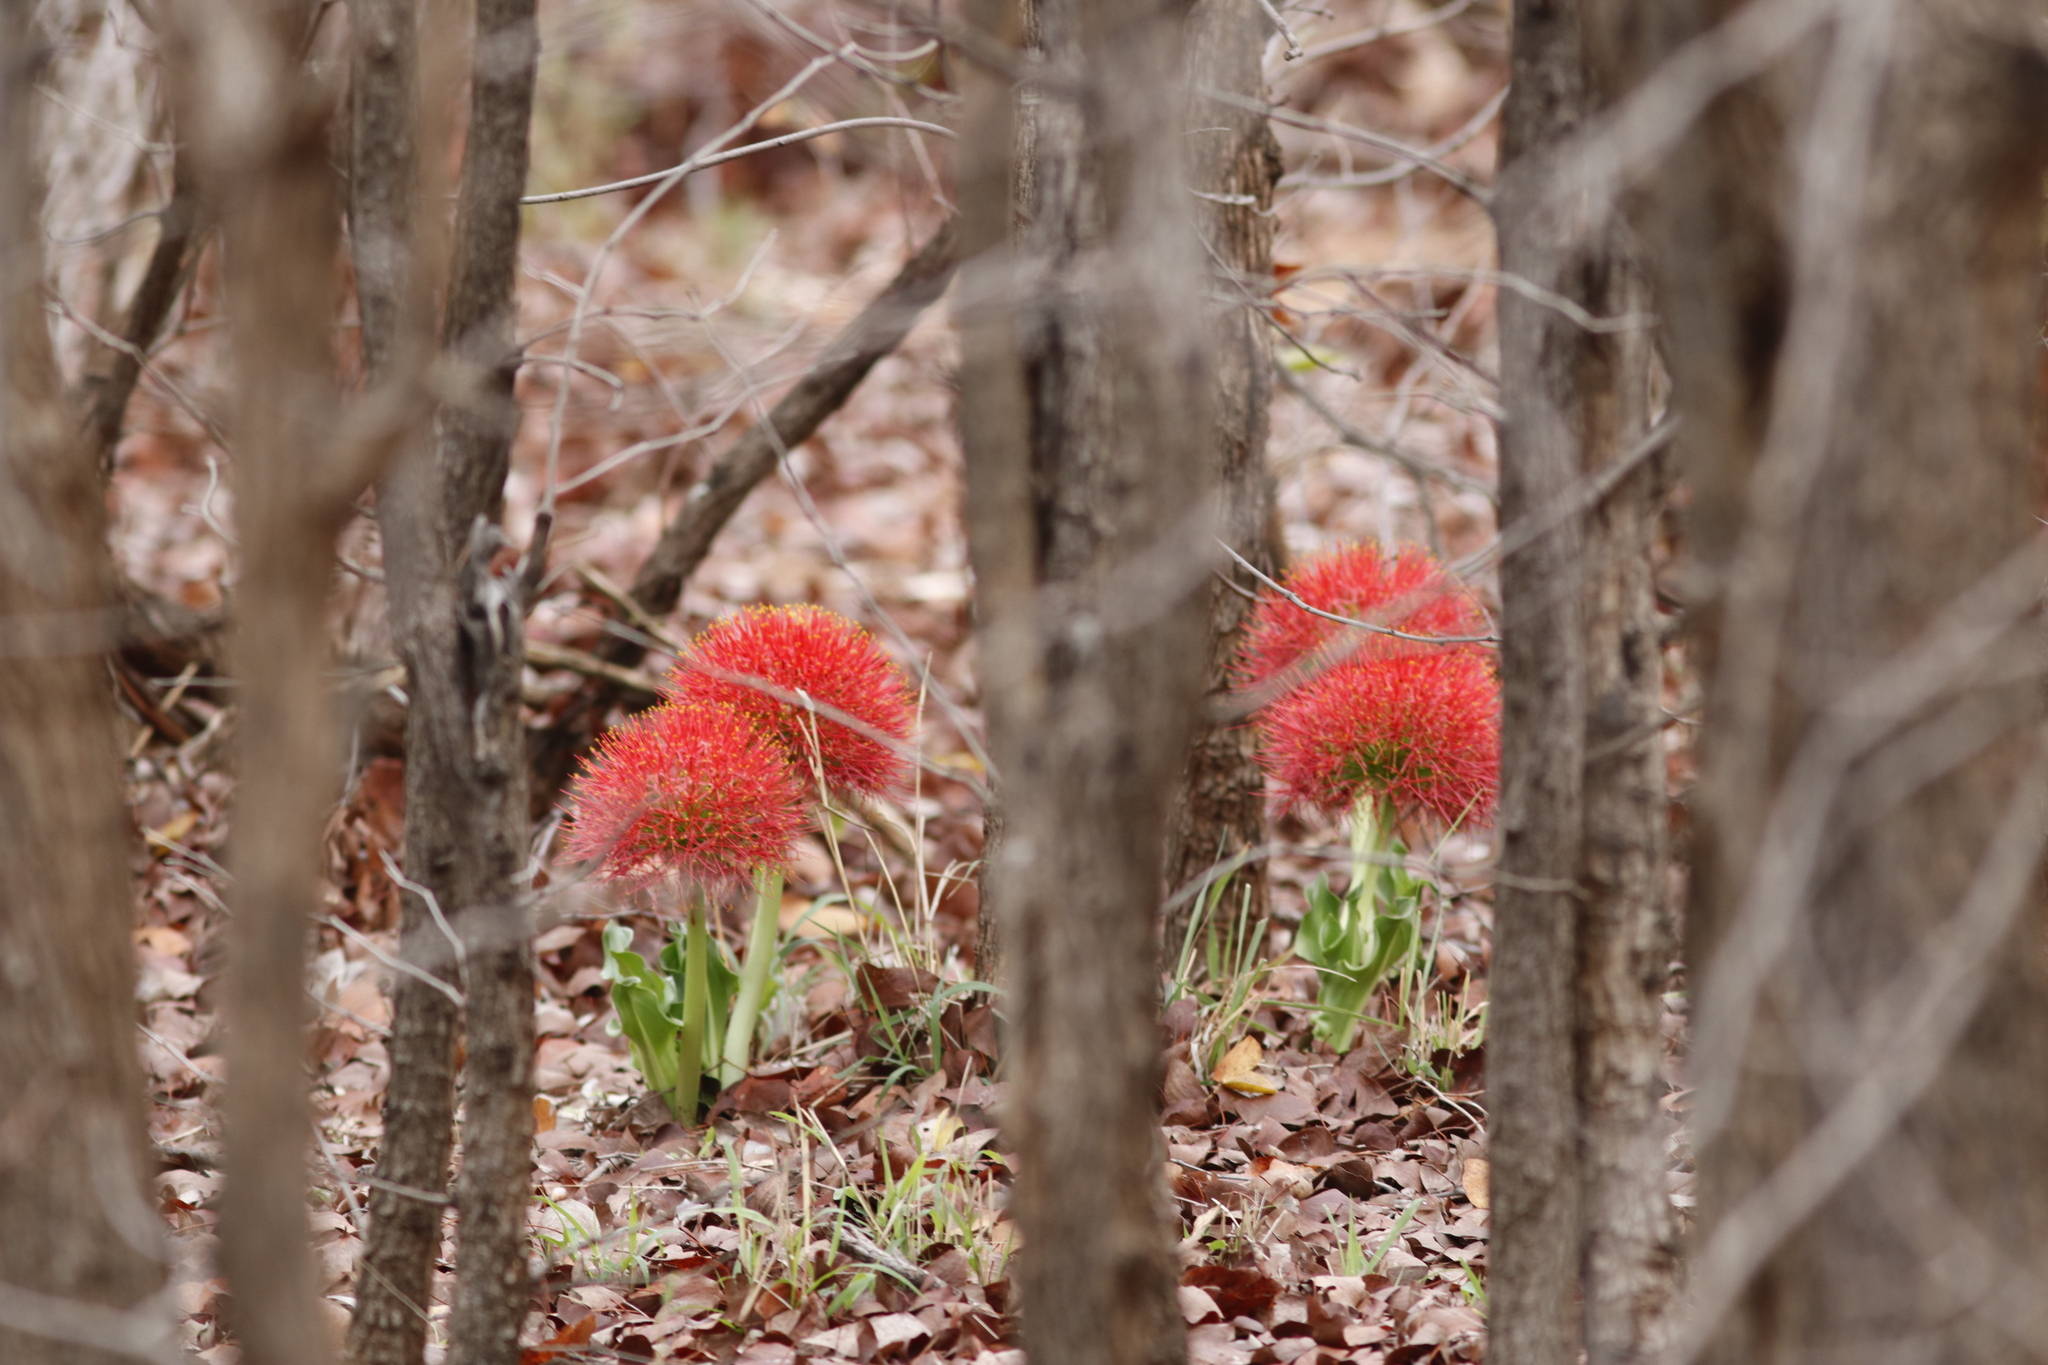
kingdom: Plantae
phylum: Tracheophyta
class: Liliopsida
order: Asparagales
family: Amaryllidaceae
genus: Scadoxus
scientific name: Scadoxus multiflorus
